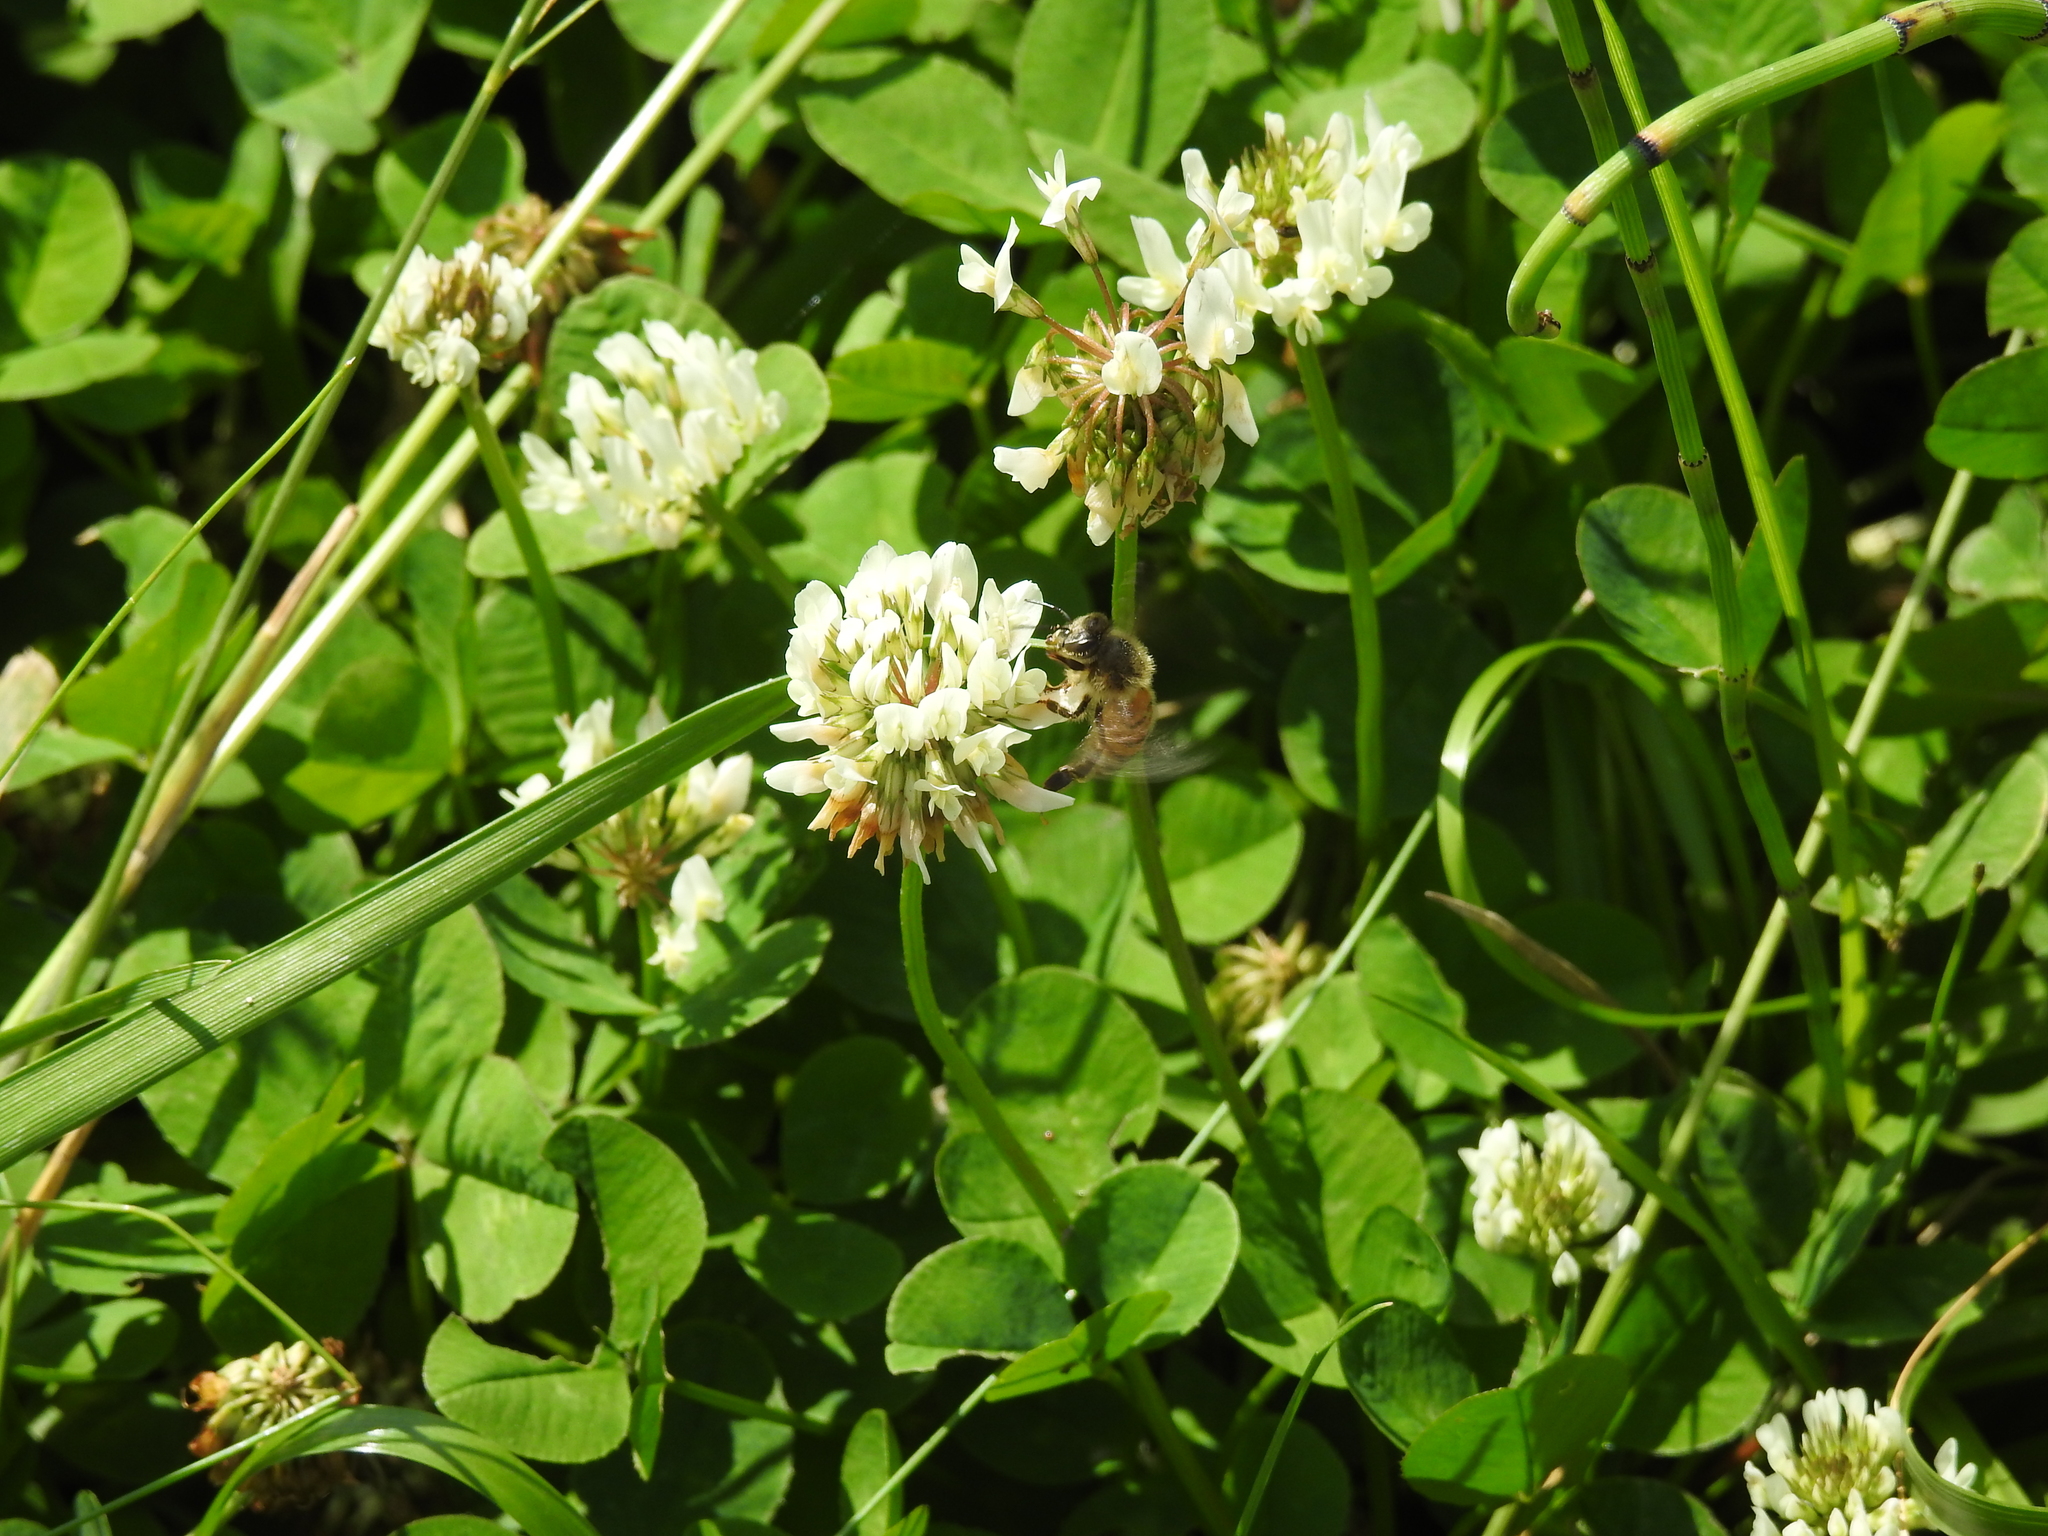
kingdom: Plantae
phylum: Tracheophyta
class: Magnoliopsida
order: Fabales
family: Fabaceae
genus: Trifolium
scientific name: Trifolium repens
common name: White clover
